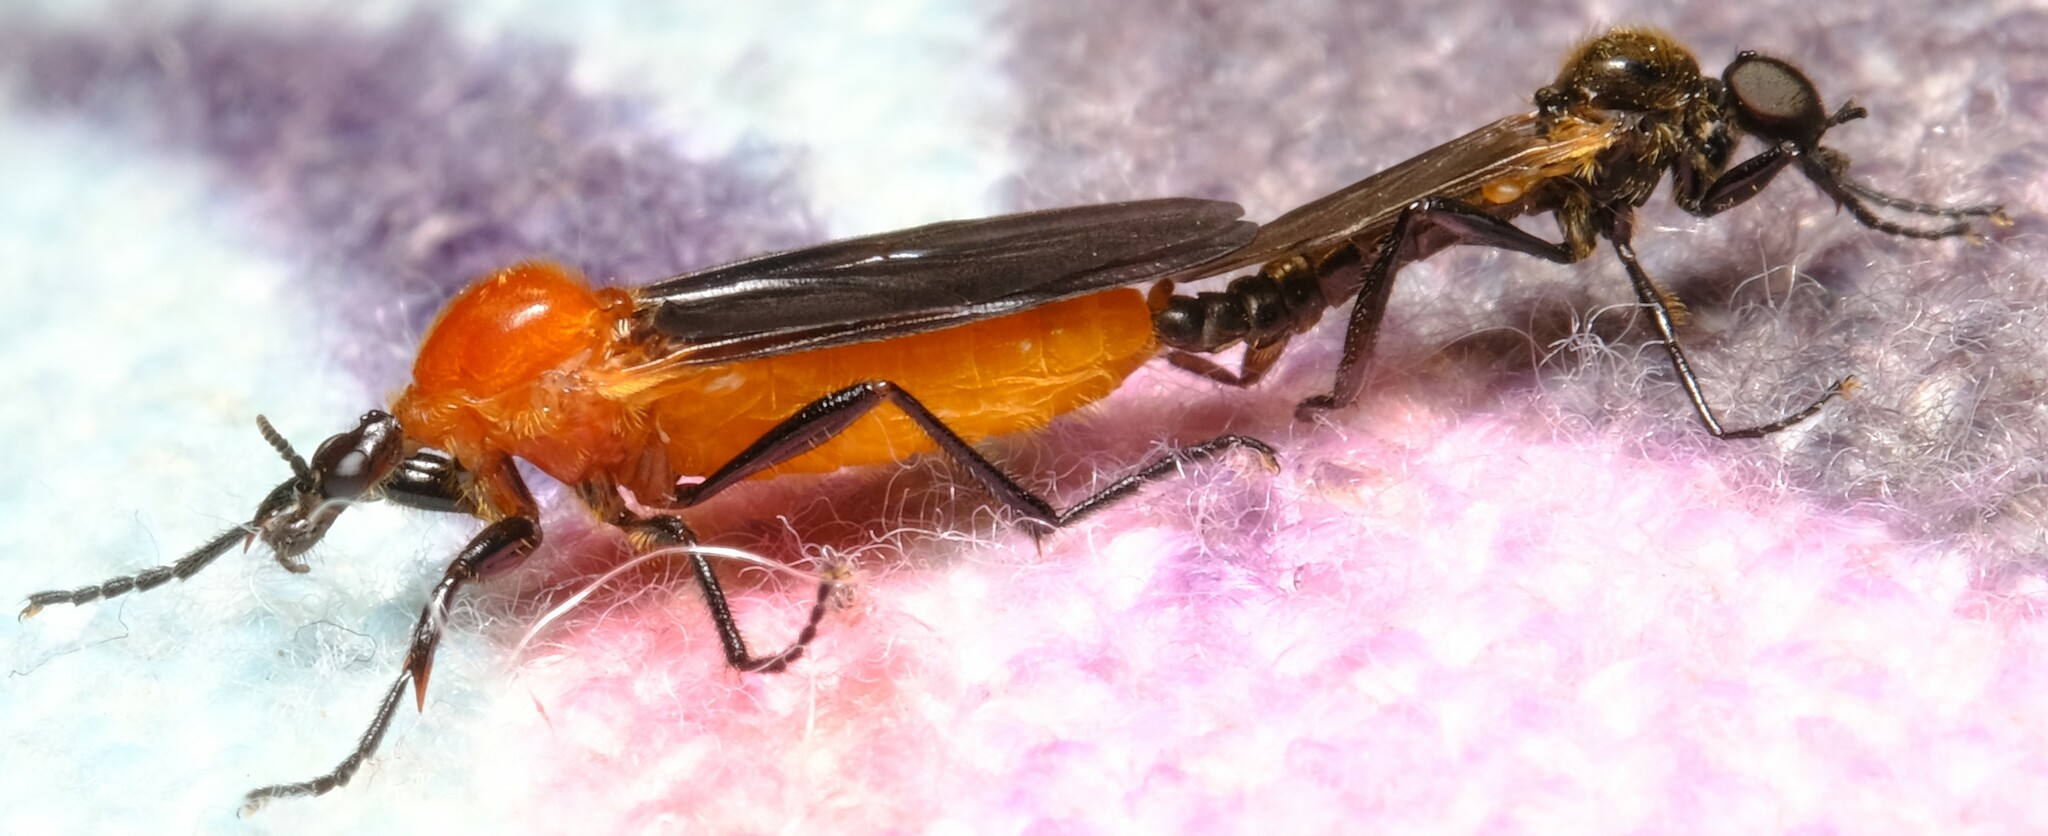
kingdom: Animalia
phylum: Arthropoda
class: Insecta
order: Diptera
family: Bibionidae
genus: Bibio
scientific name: Bibio imitator
